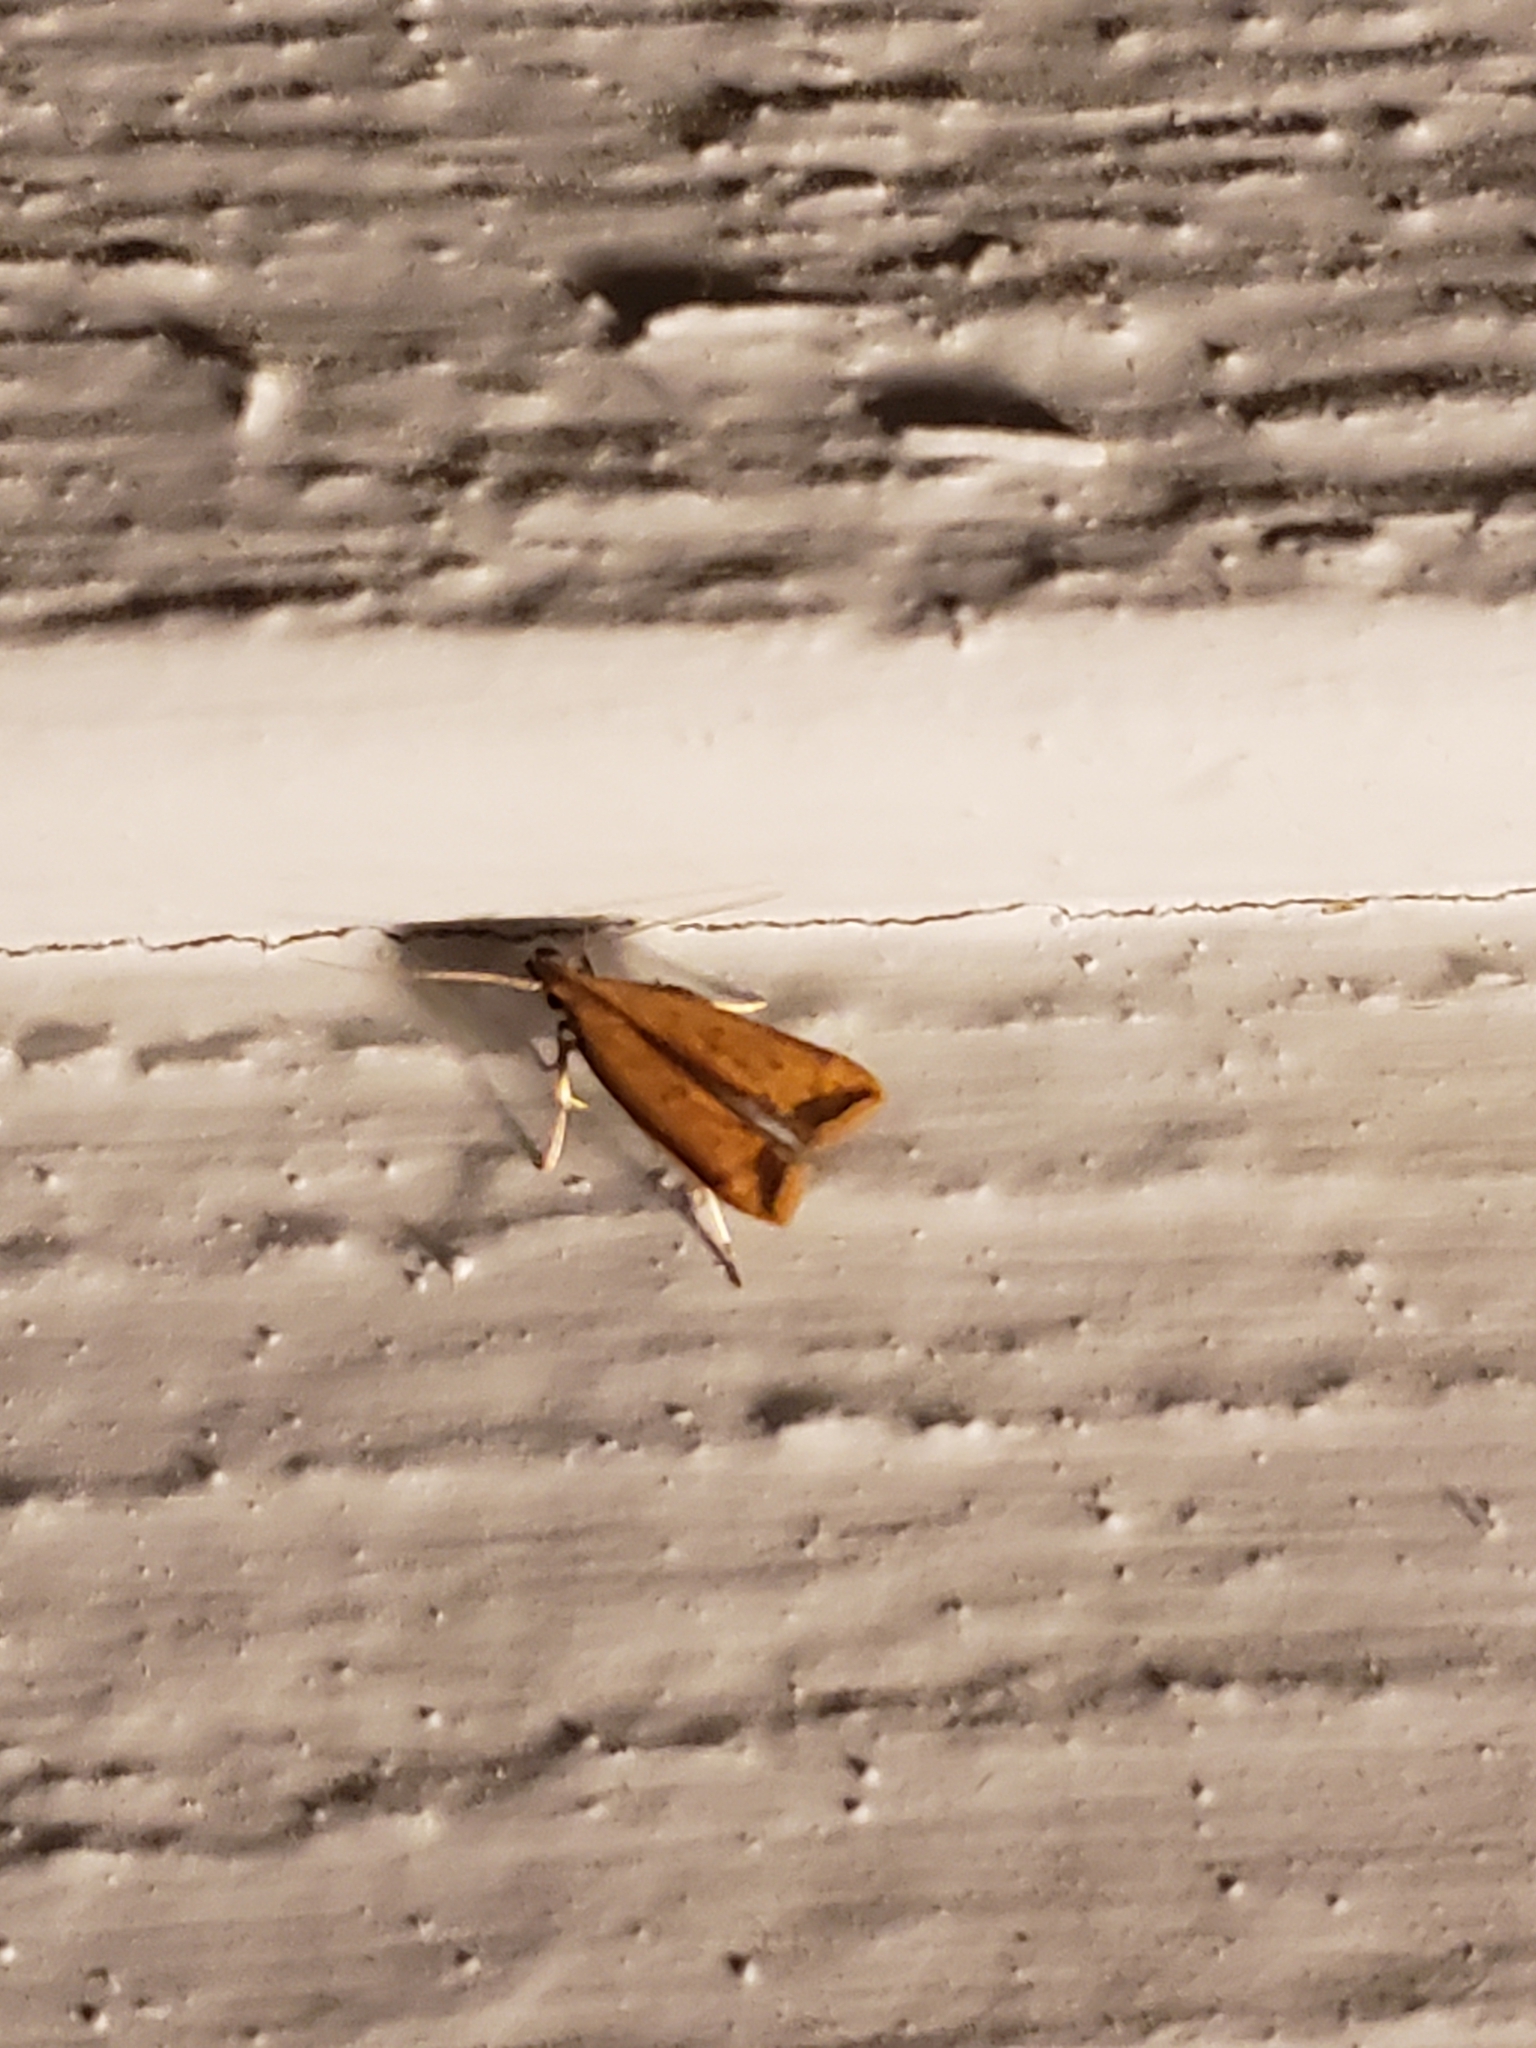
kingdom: Animalia
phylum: Arthropoda
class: Insecta
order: Lepidoptera
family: Gelechiidae
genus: Dichomeris
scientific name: Dichomeris heriguronis
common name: Black-edged dichomeris moth
